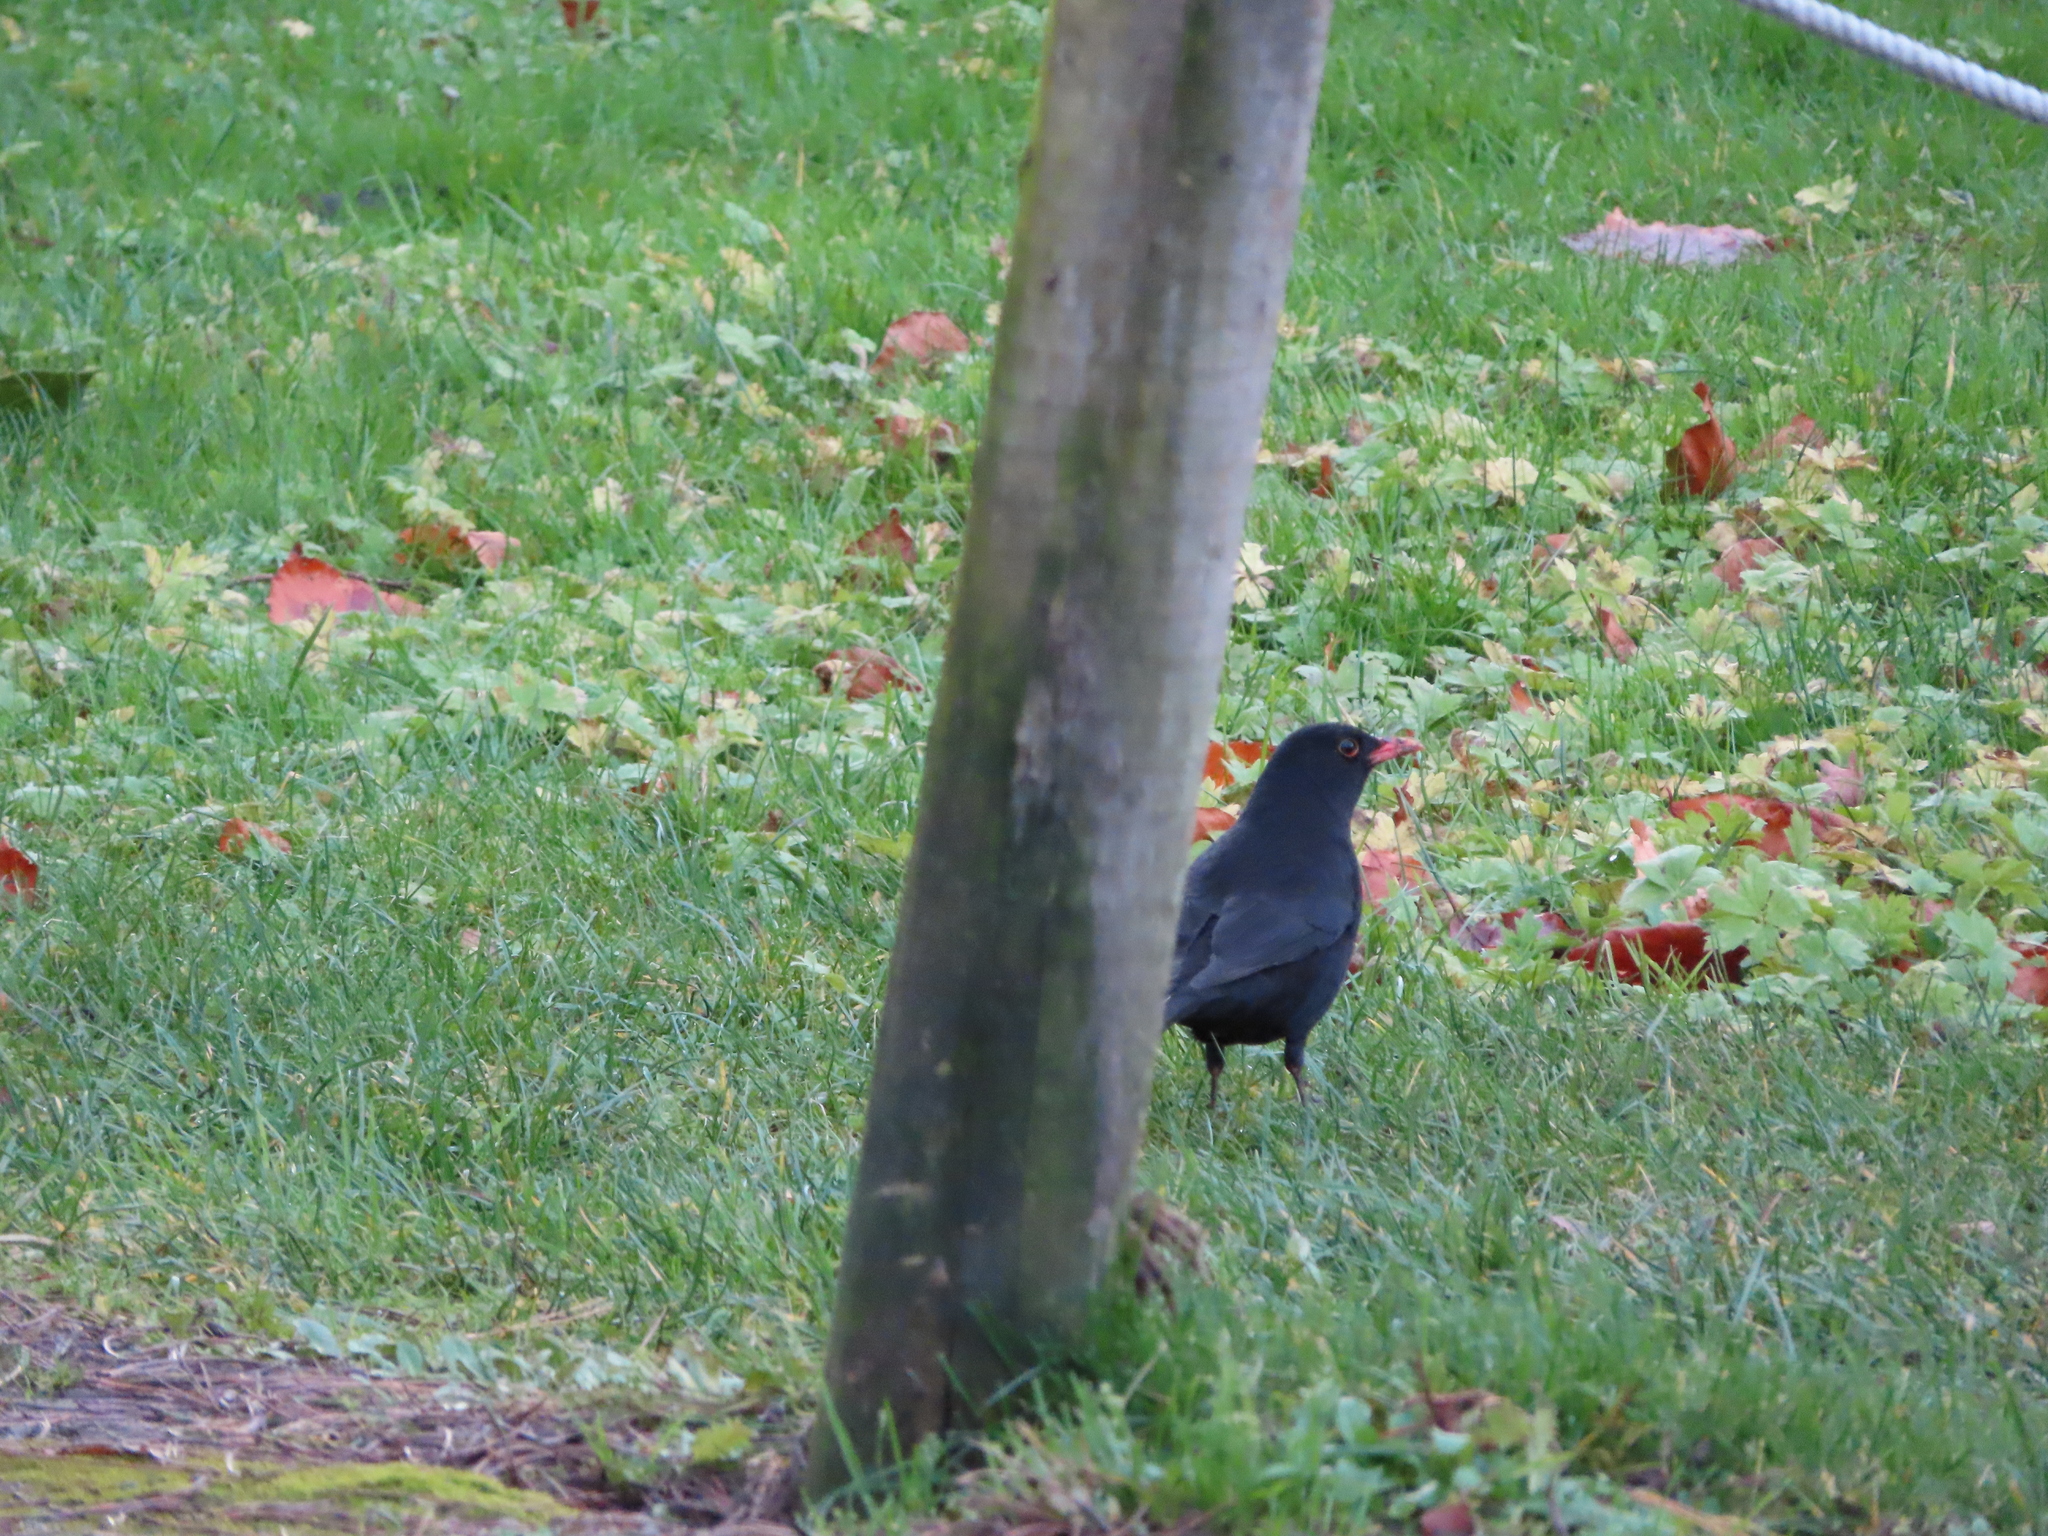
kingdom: Animalia
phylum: Chordata
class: Aves
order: Passeriformes
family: Turdidae
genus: Turdus
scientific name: Turdus merula
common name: Common blackbird
